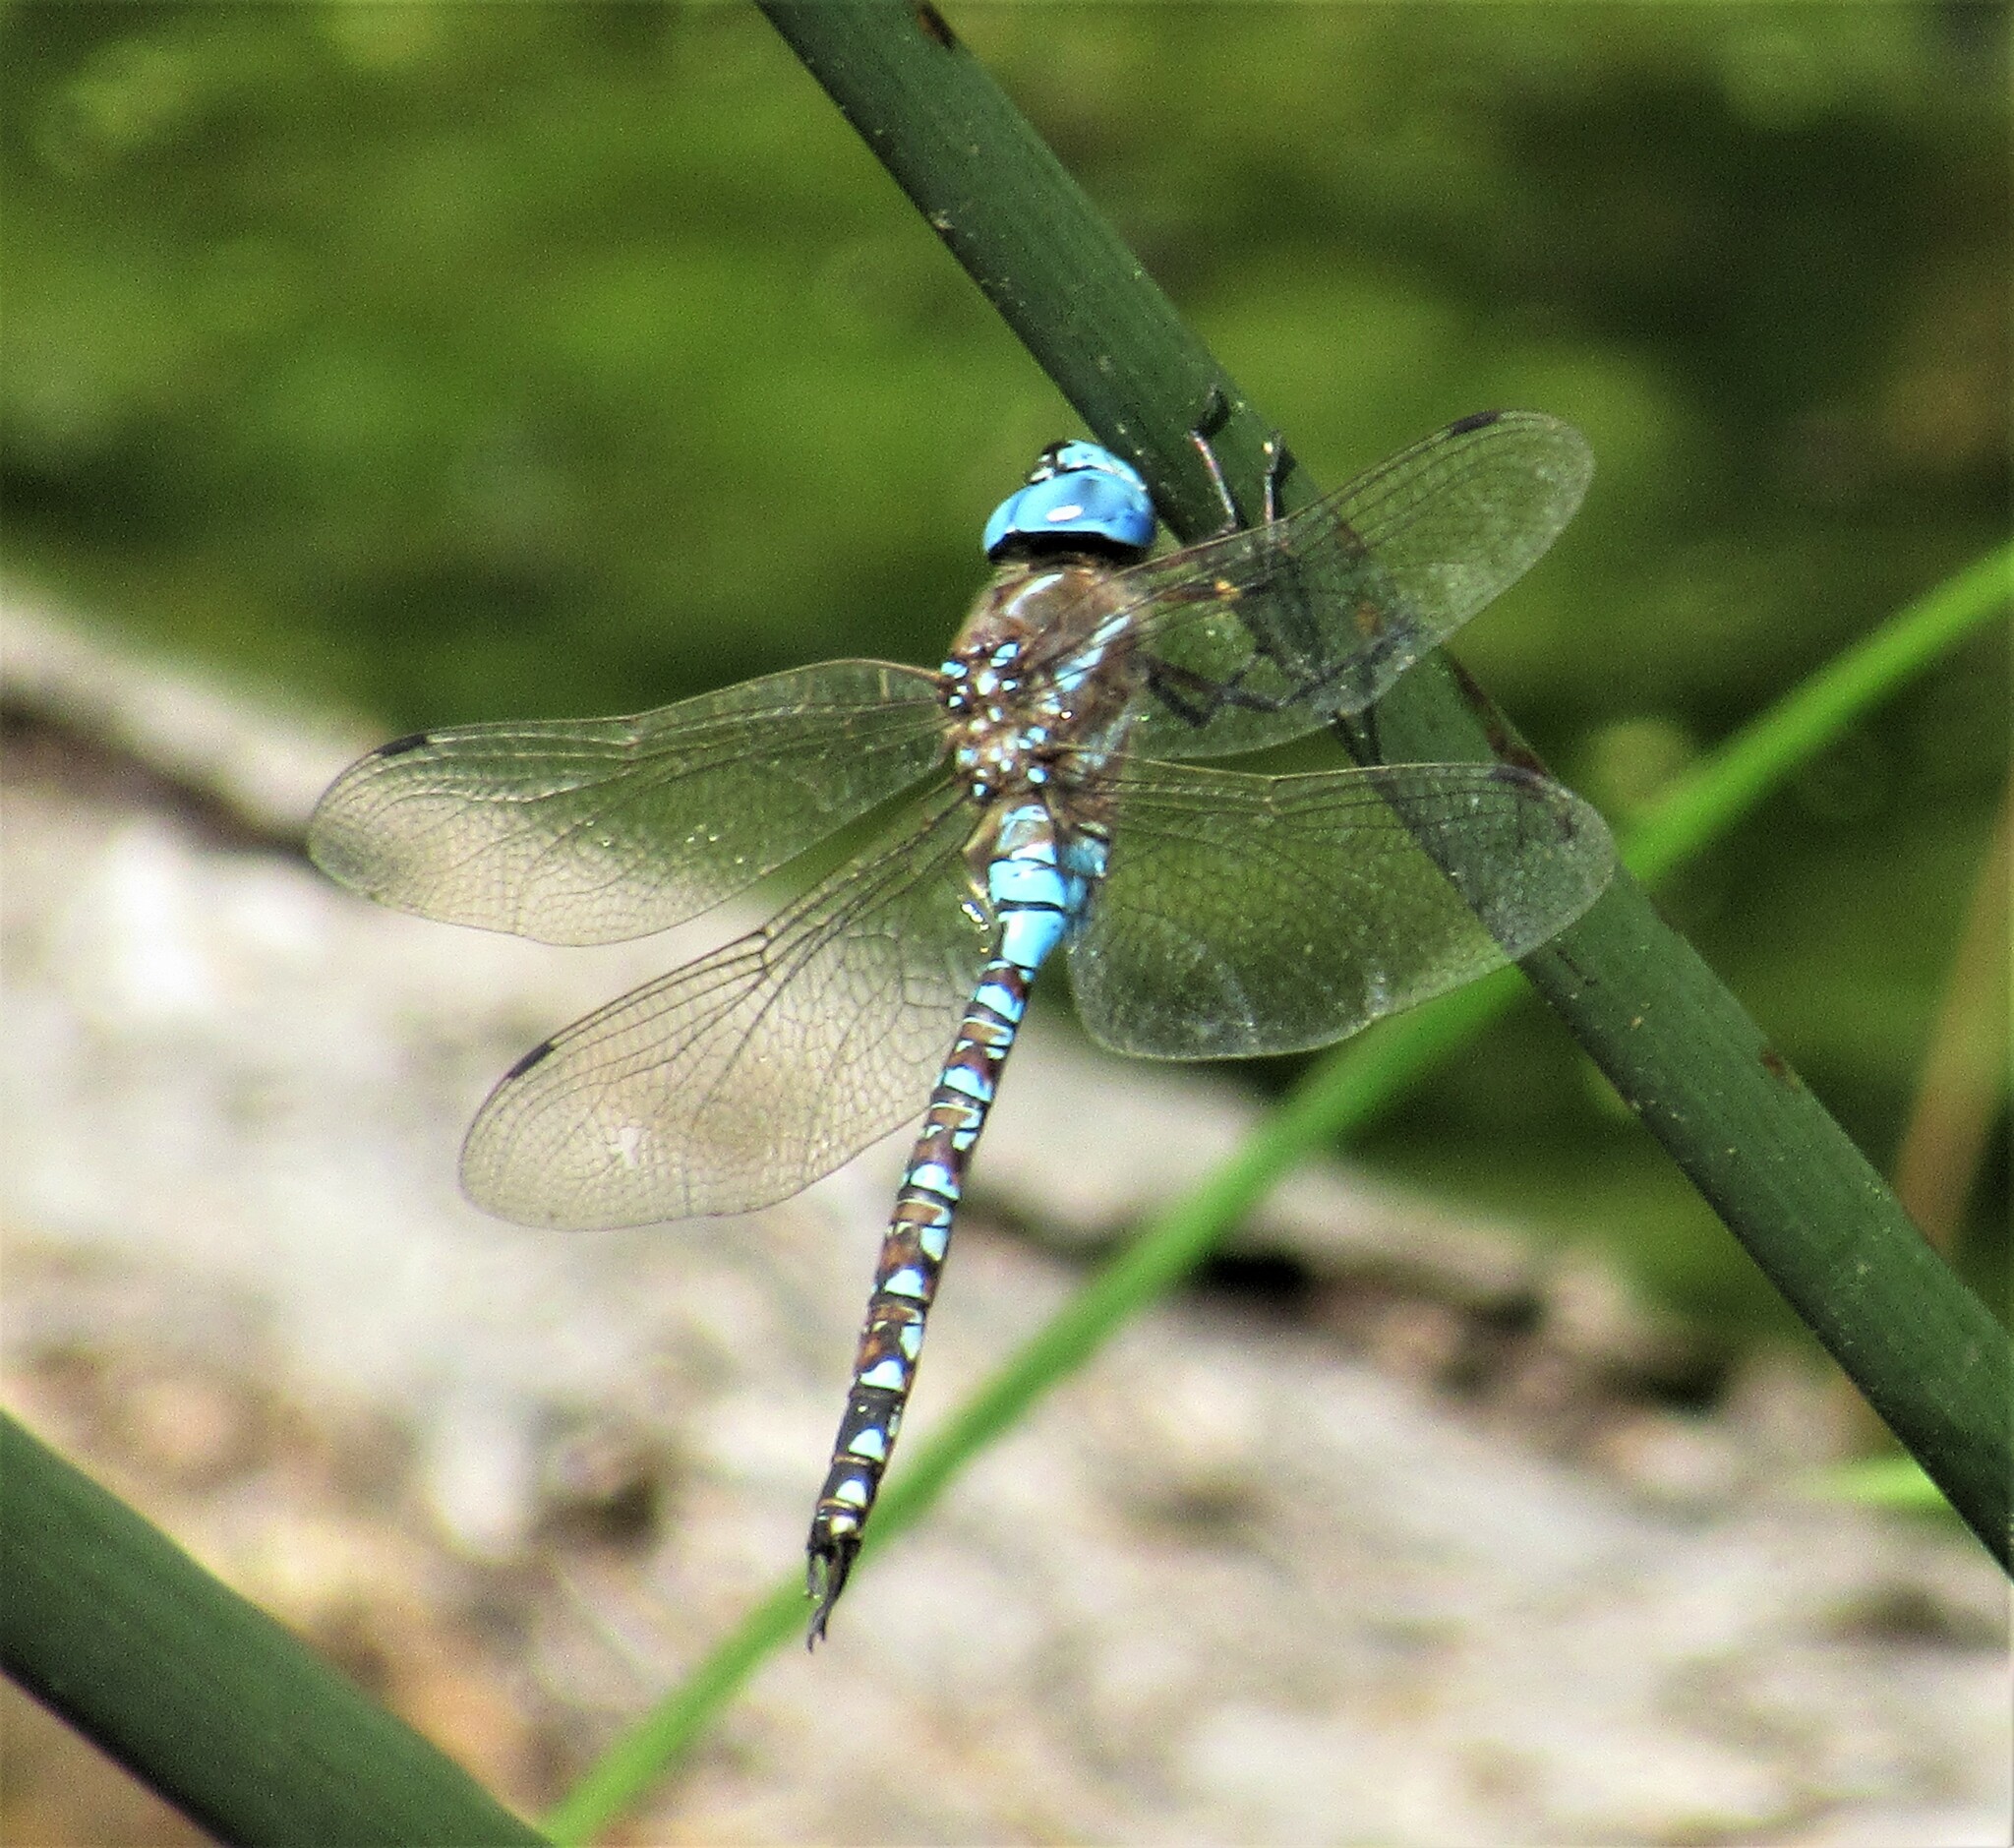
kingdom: Animalia
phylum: Arthropoda
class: Insecta
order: Odonata
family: Aeshnidae
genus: Rhionaeschna
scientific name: Rhionaeschna multicolor
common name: Blue-eyed darner
